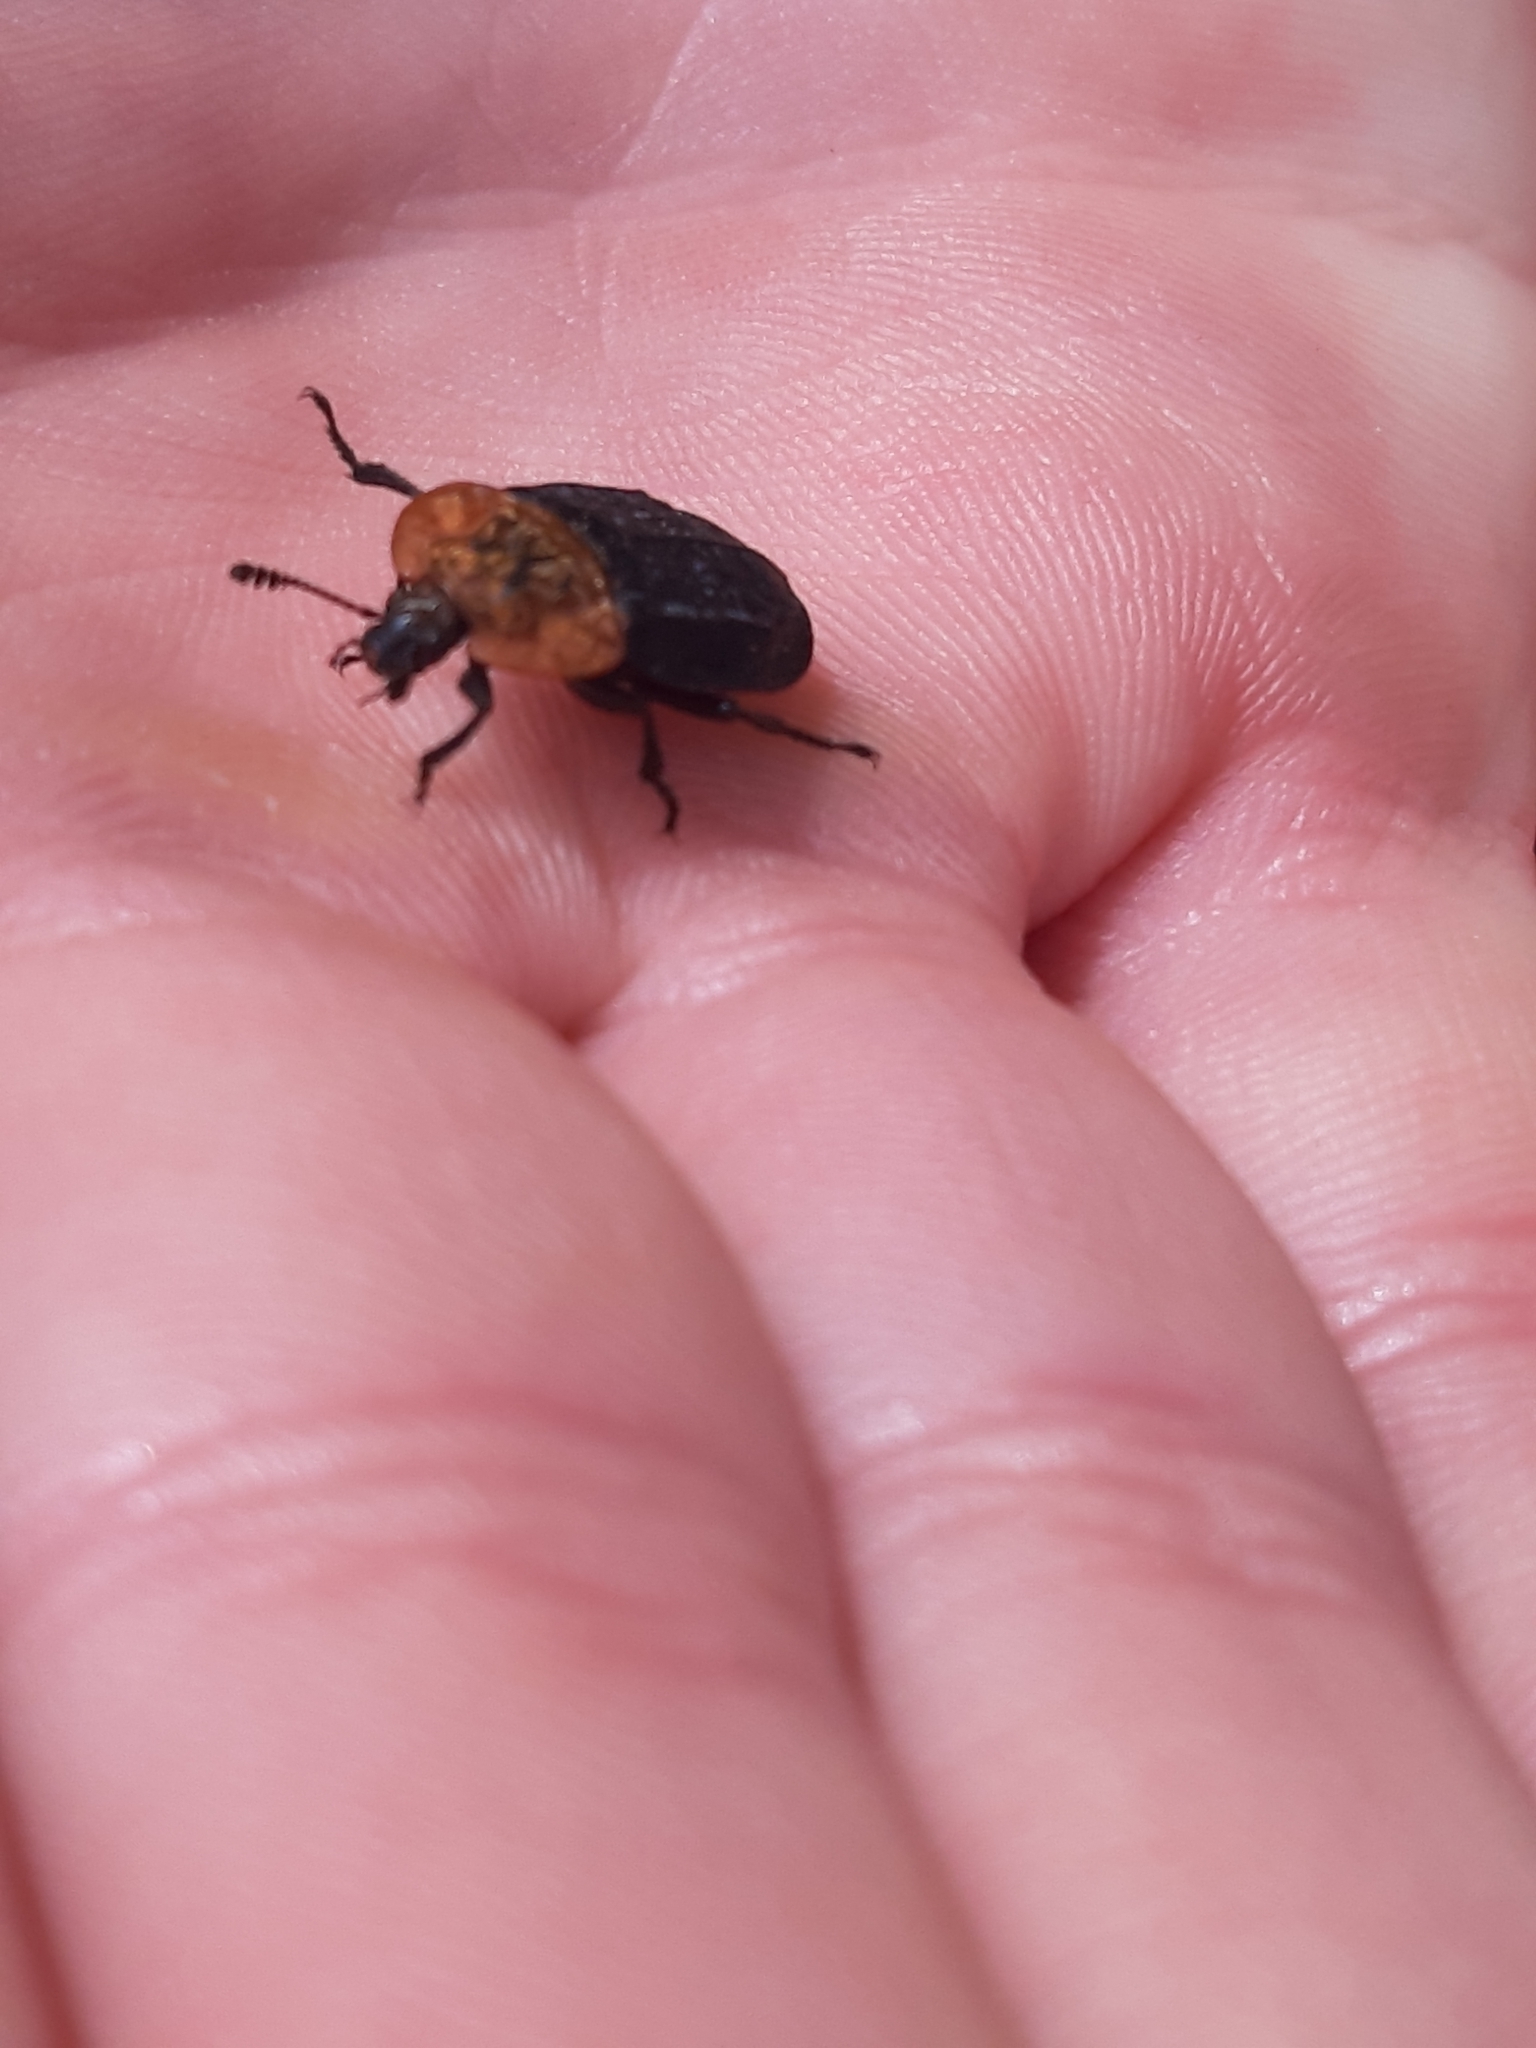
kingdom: Animalia
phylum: Arthropoda
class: Insecta
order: Coleoptera
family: Staphylinidae
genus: Oiceoptoma
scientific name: Oiceoptoma thoracicum
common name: Red-breasted carrion beetle
